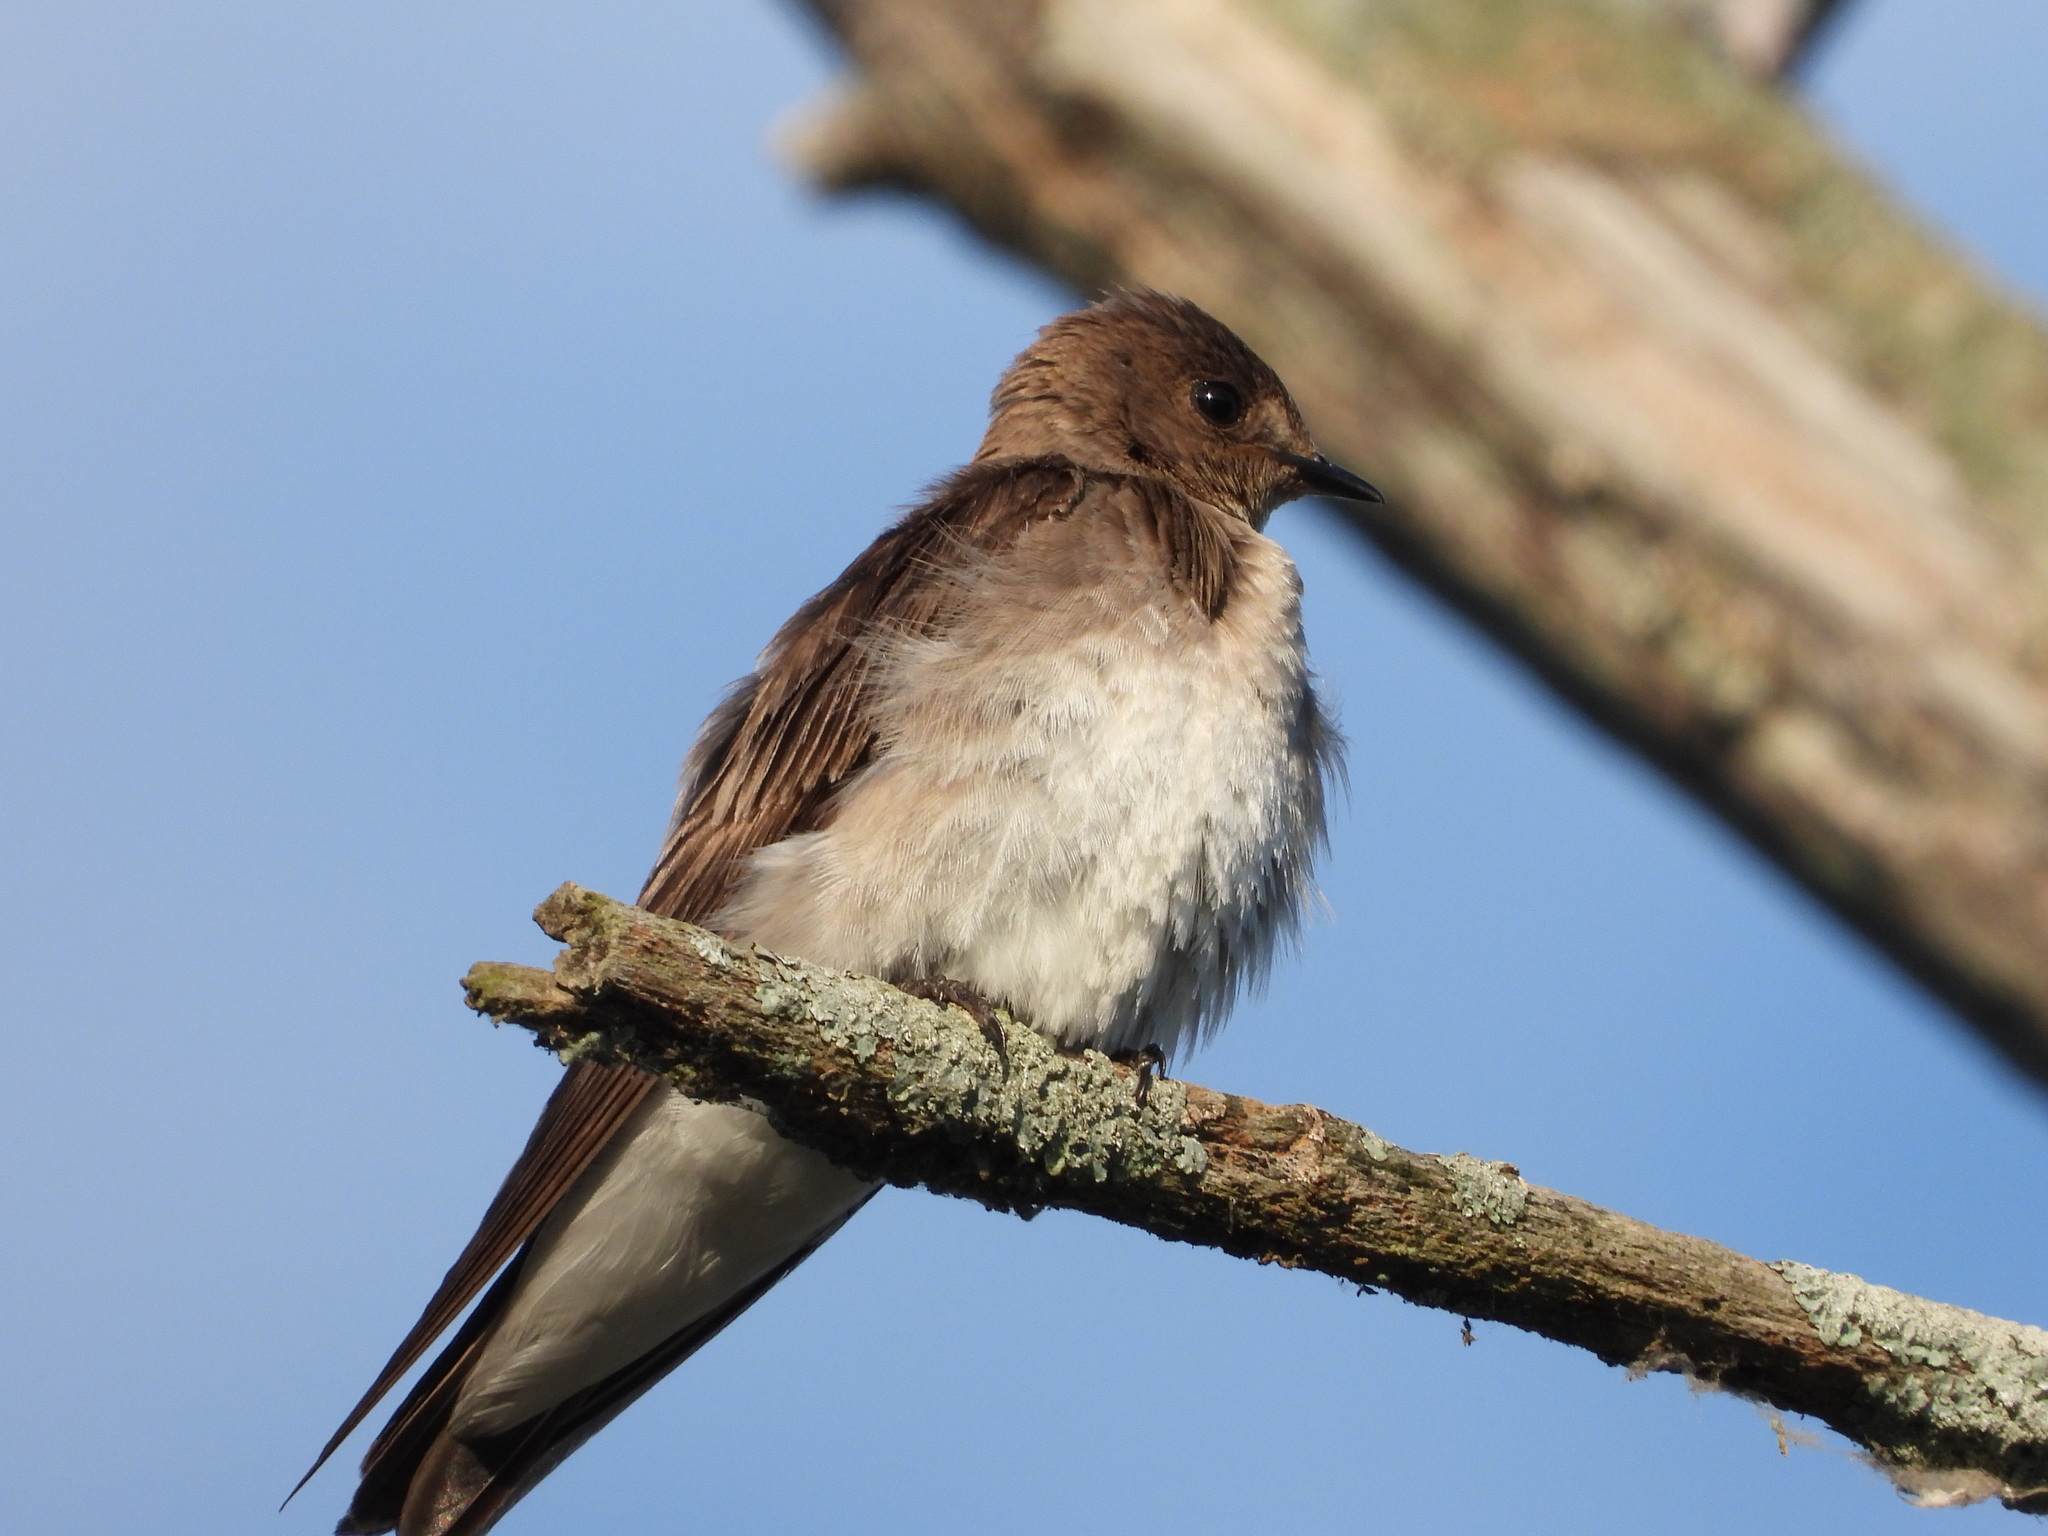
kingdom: Animalia
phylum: Chordata
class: Aves
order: Passeriformes
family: Hirundinidae
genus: Stelgidopteryx
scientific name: Stelgidopteryx serripennis
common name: Northern rough-winged swallow
